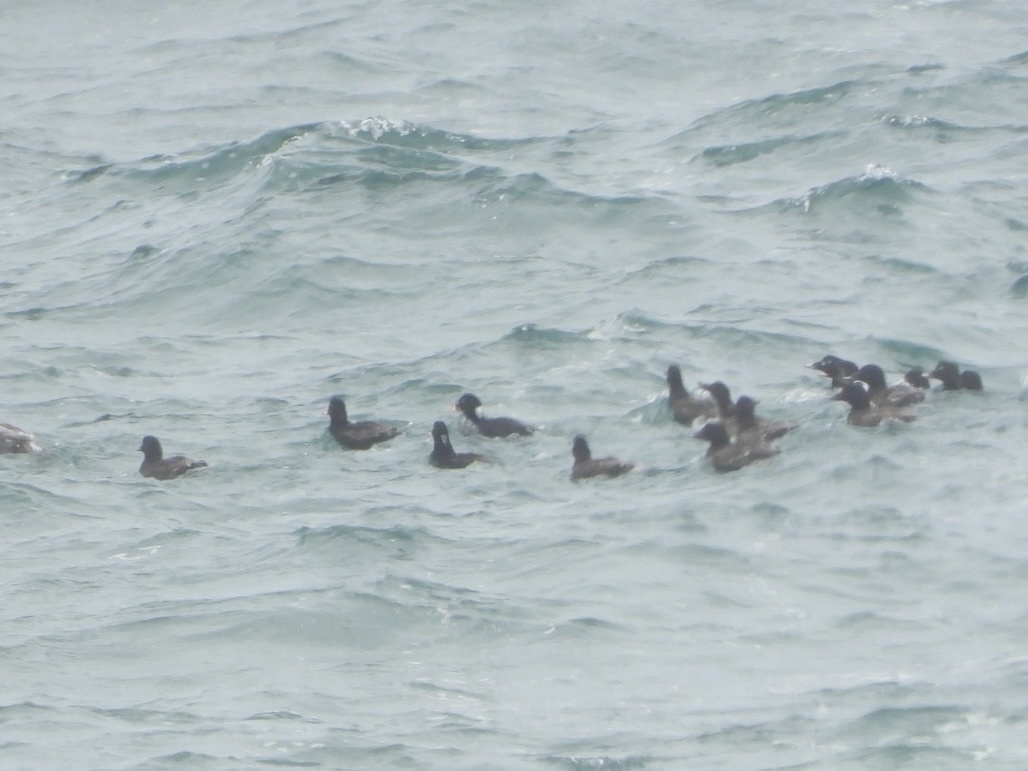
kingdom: Animalia
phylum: Chordata
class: Aves
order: Anseriformes
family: Anatidae
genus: Melanitta
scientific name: Melanitta perspicillata
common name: Surf scoter
